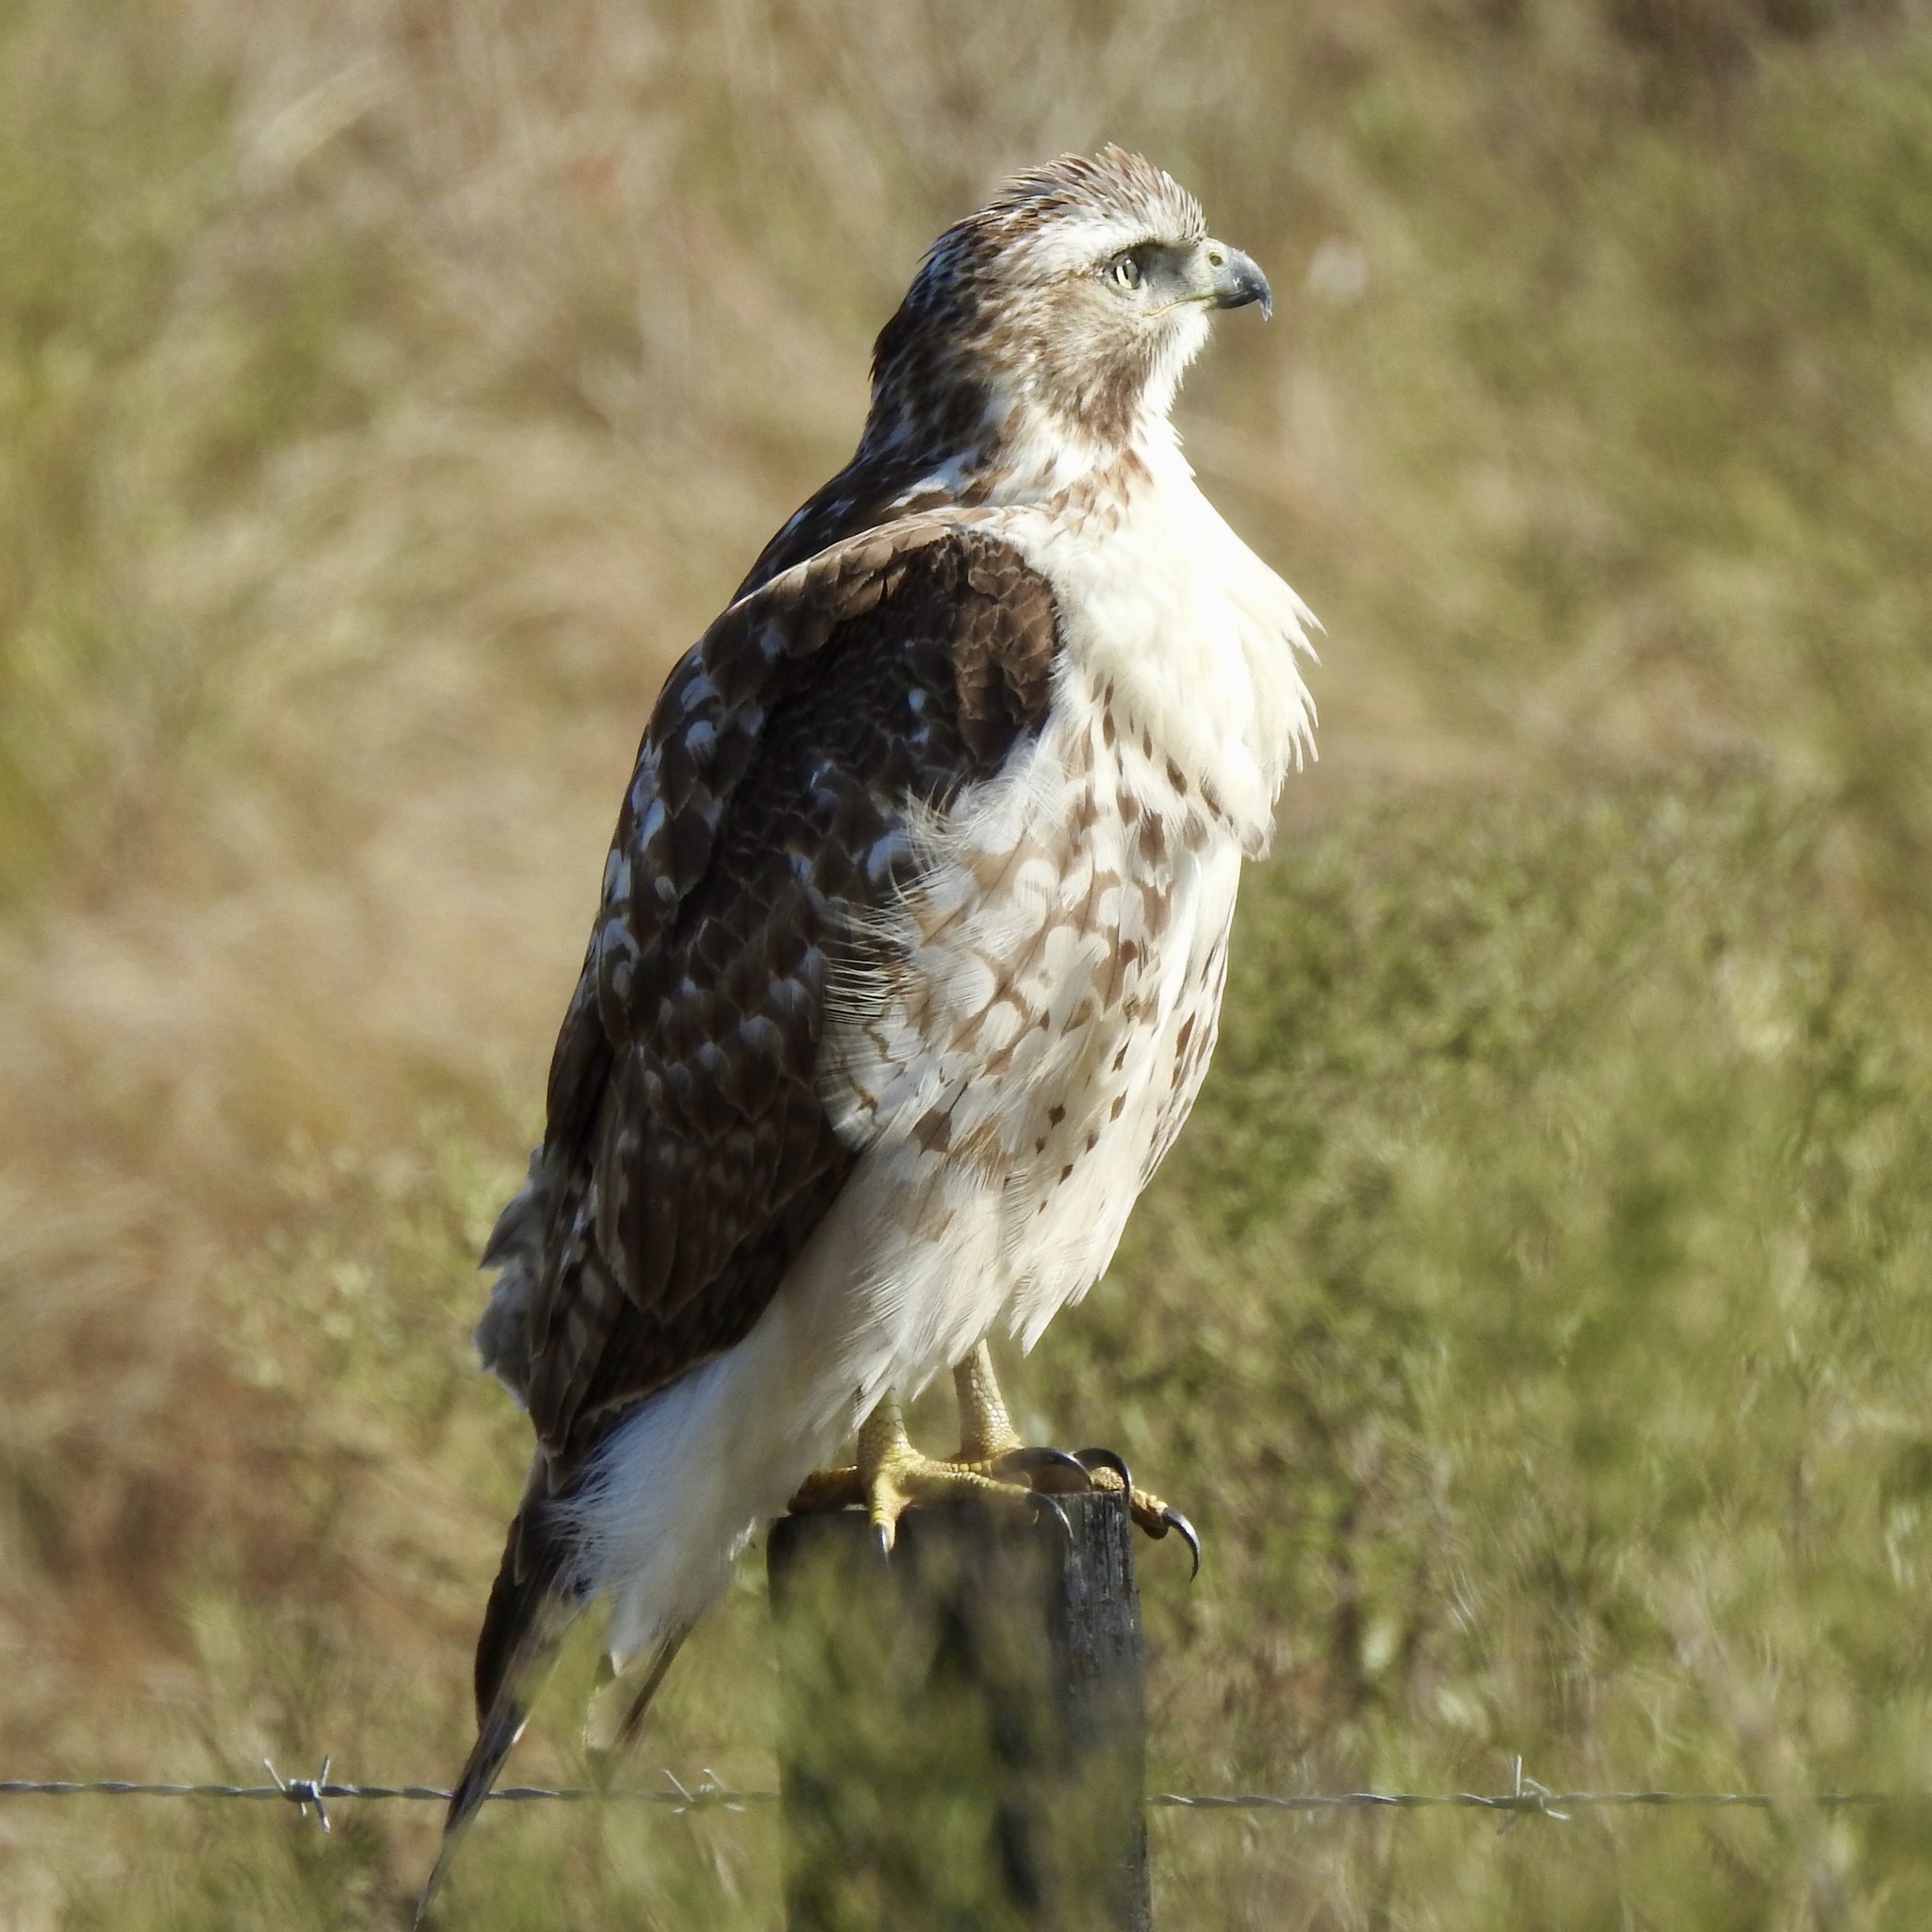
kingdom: Animalia
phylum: Chordata
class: Aves
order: Accipitriformes
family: Accipitridae
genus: Buteo
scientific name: Buteo jamaicensis
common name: Red-tailed hawk
